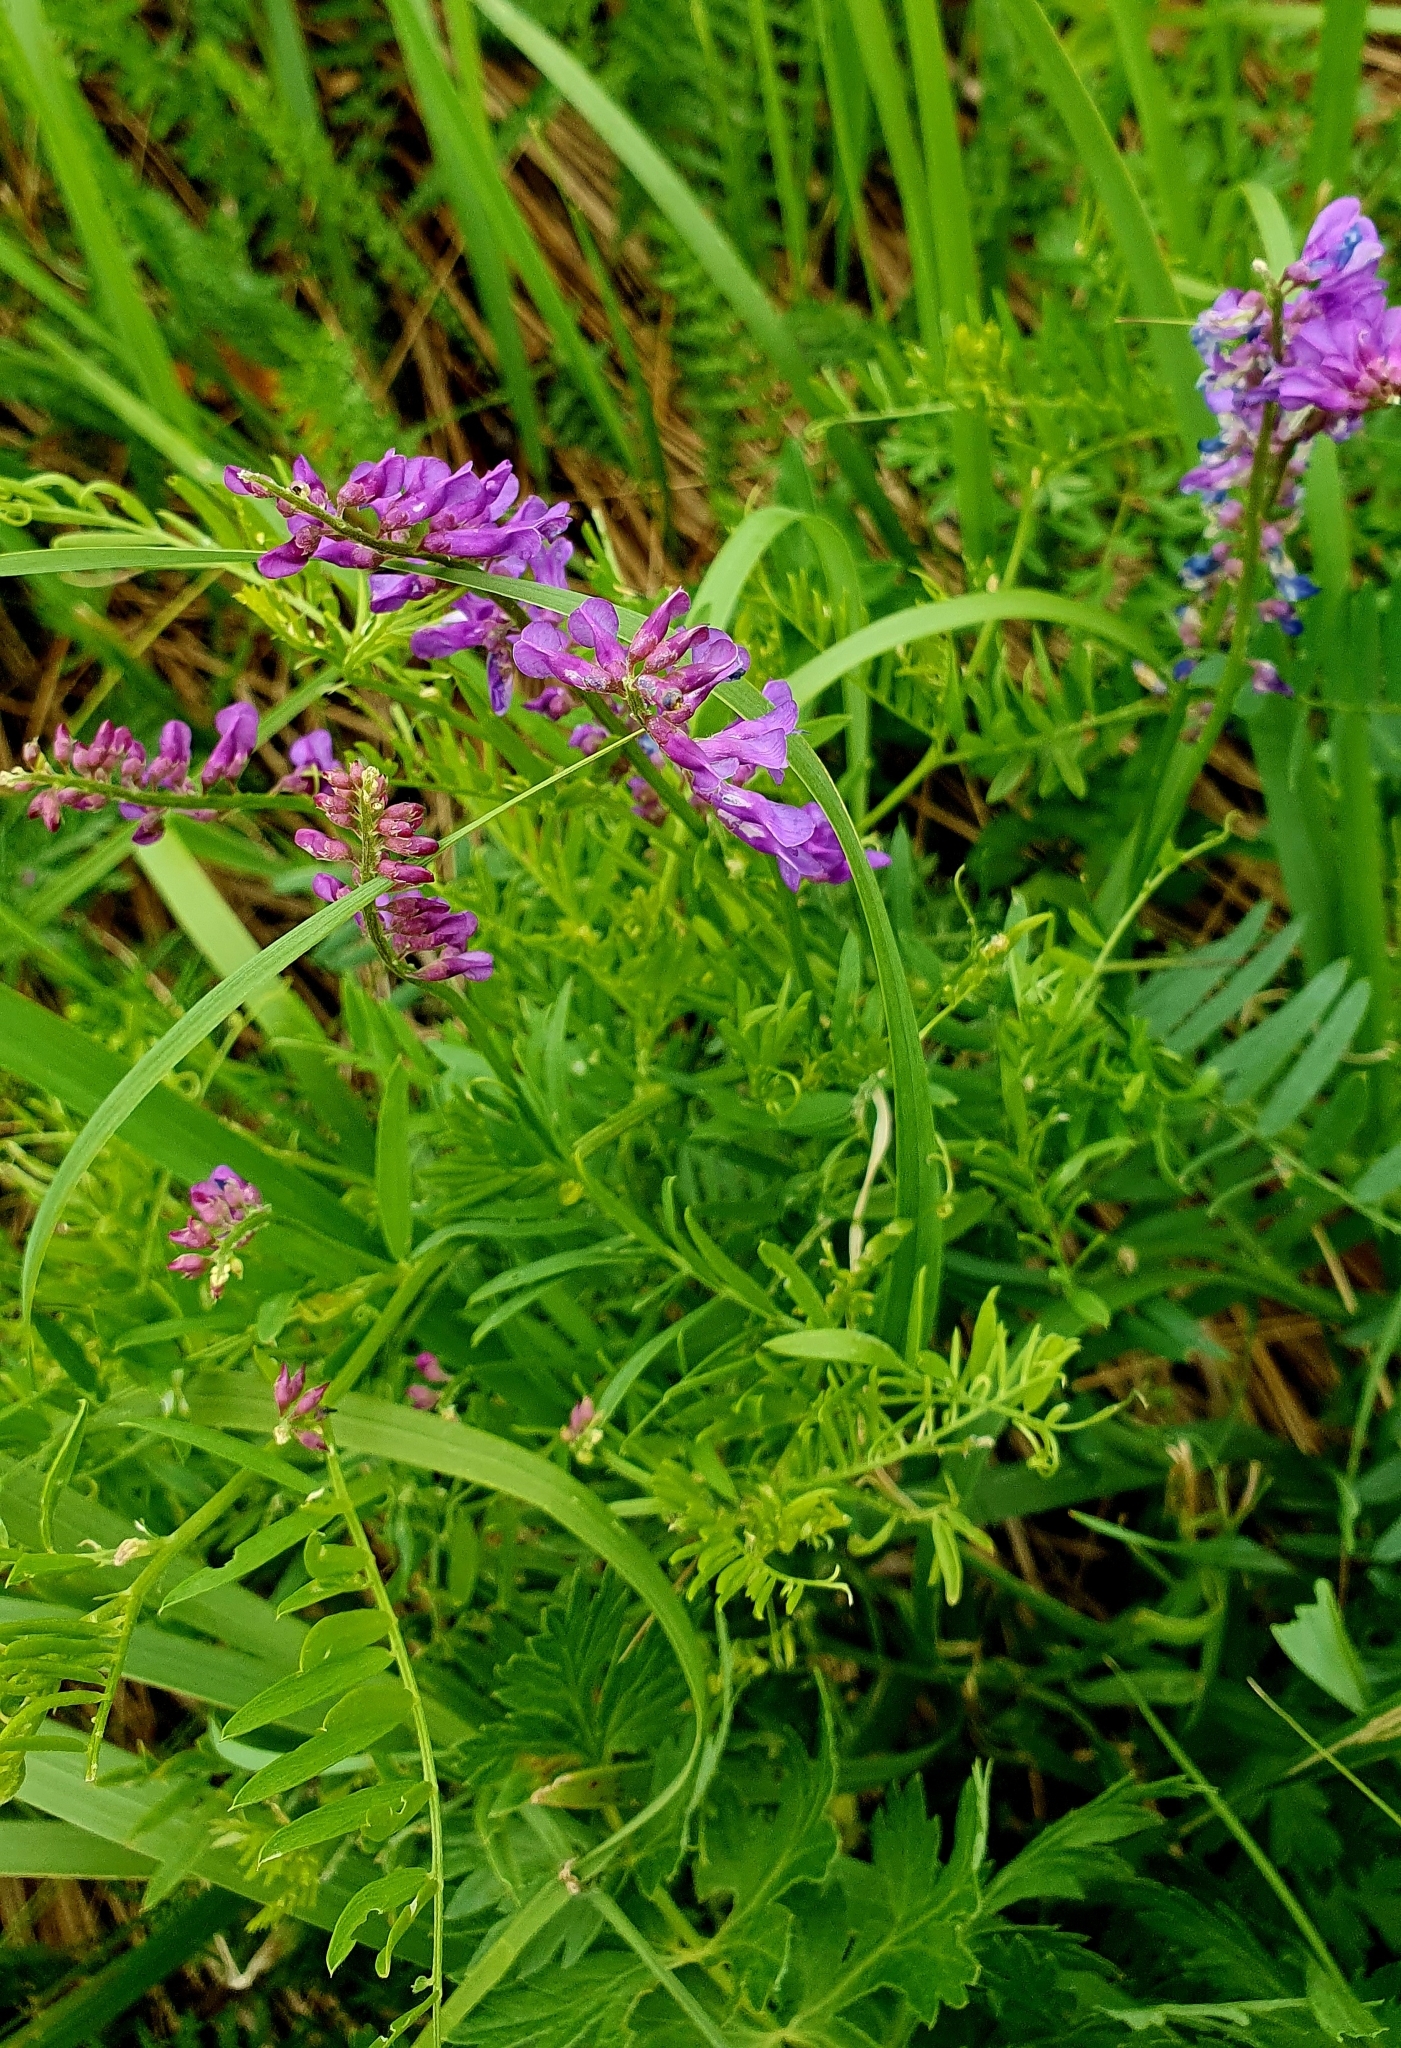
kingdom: Plantae
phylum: Tracheophyta
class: Magnoliopsida
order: Fabales
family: Fabaceae
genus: Vicia
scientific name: Vicia cracca
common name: Bird vetch
